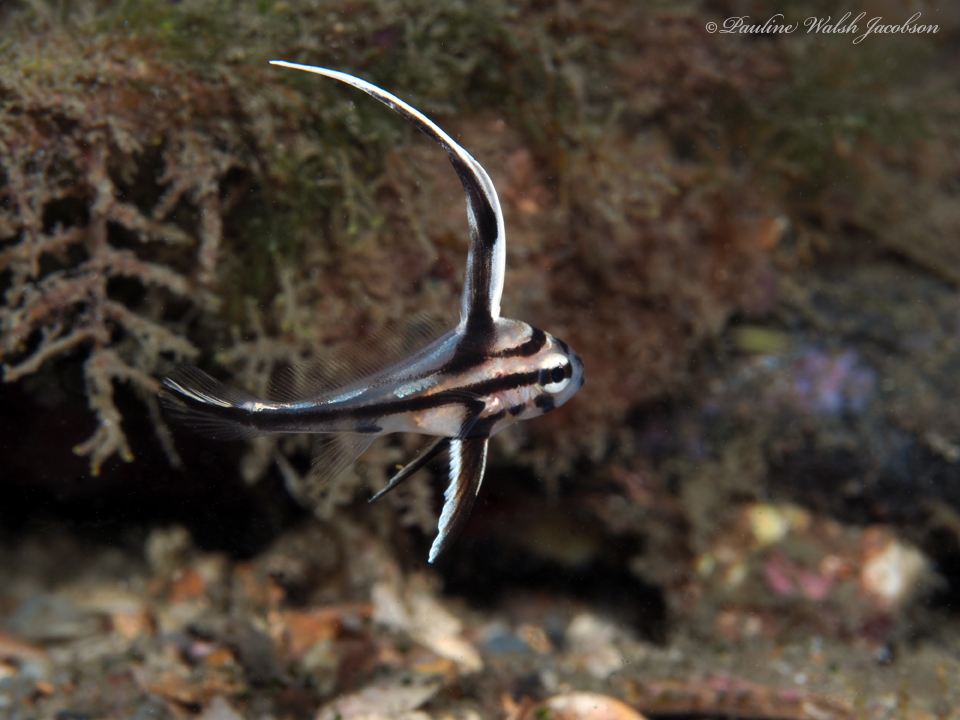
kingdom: Animalia
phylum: Chordata
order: Perciformes
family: Sciaenidae
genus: Pareques
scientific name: Pareques acuminatus
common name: High-hat
